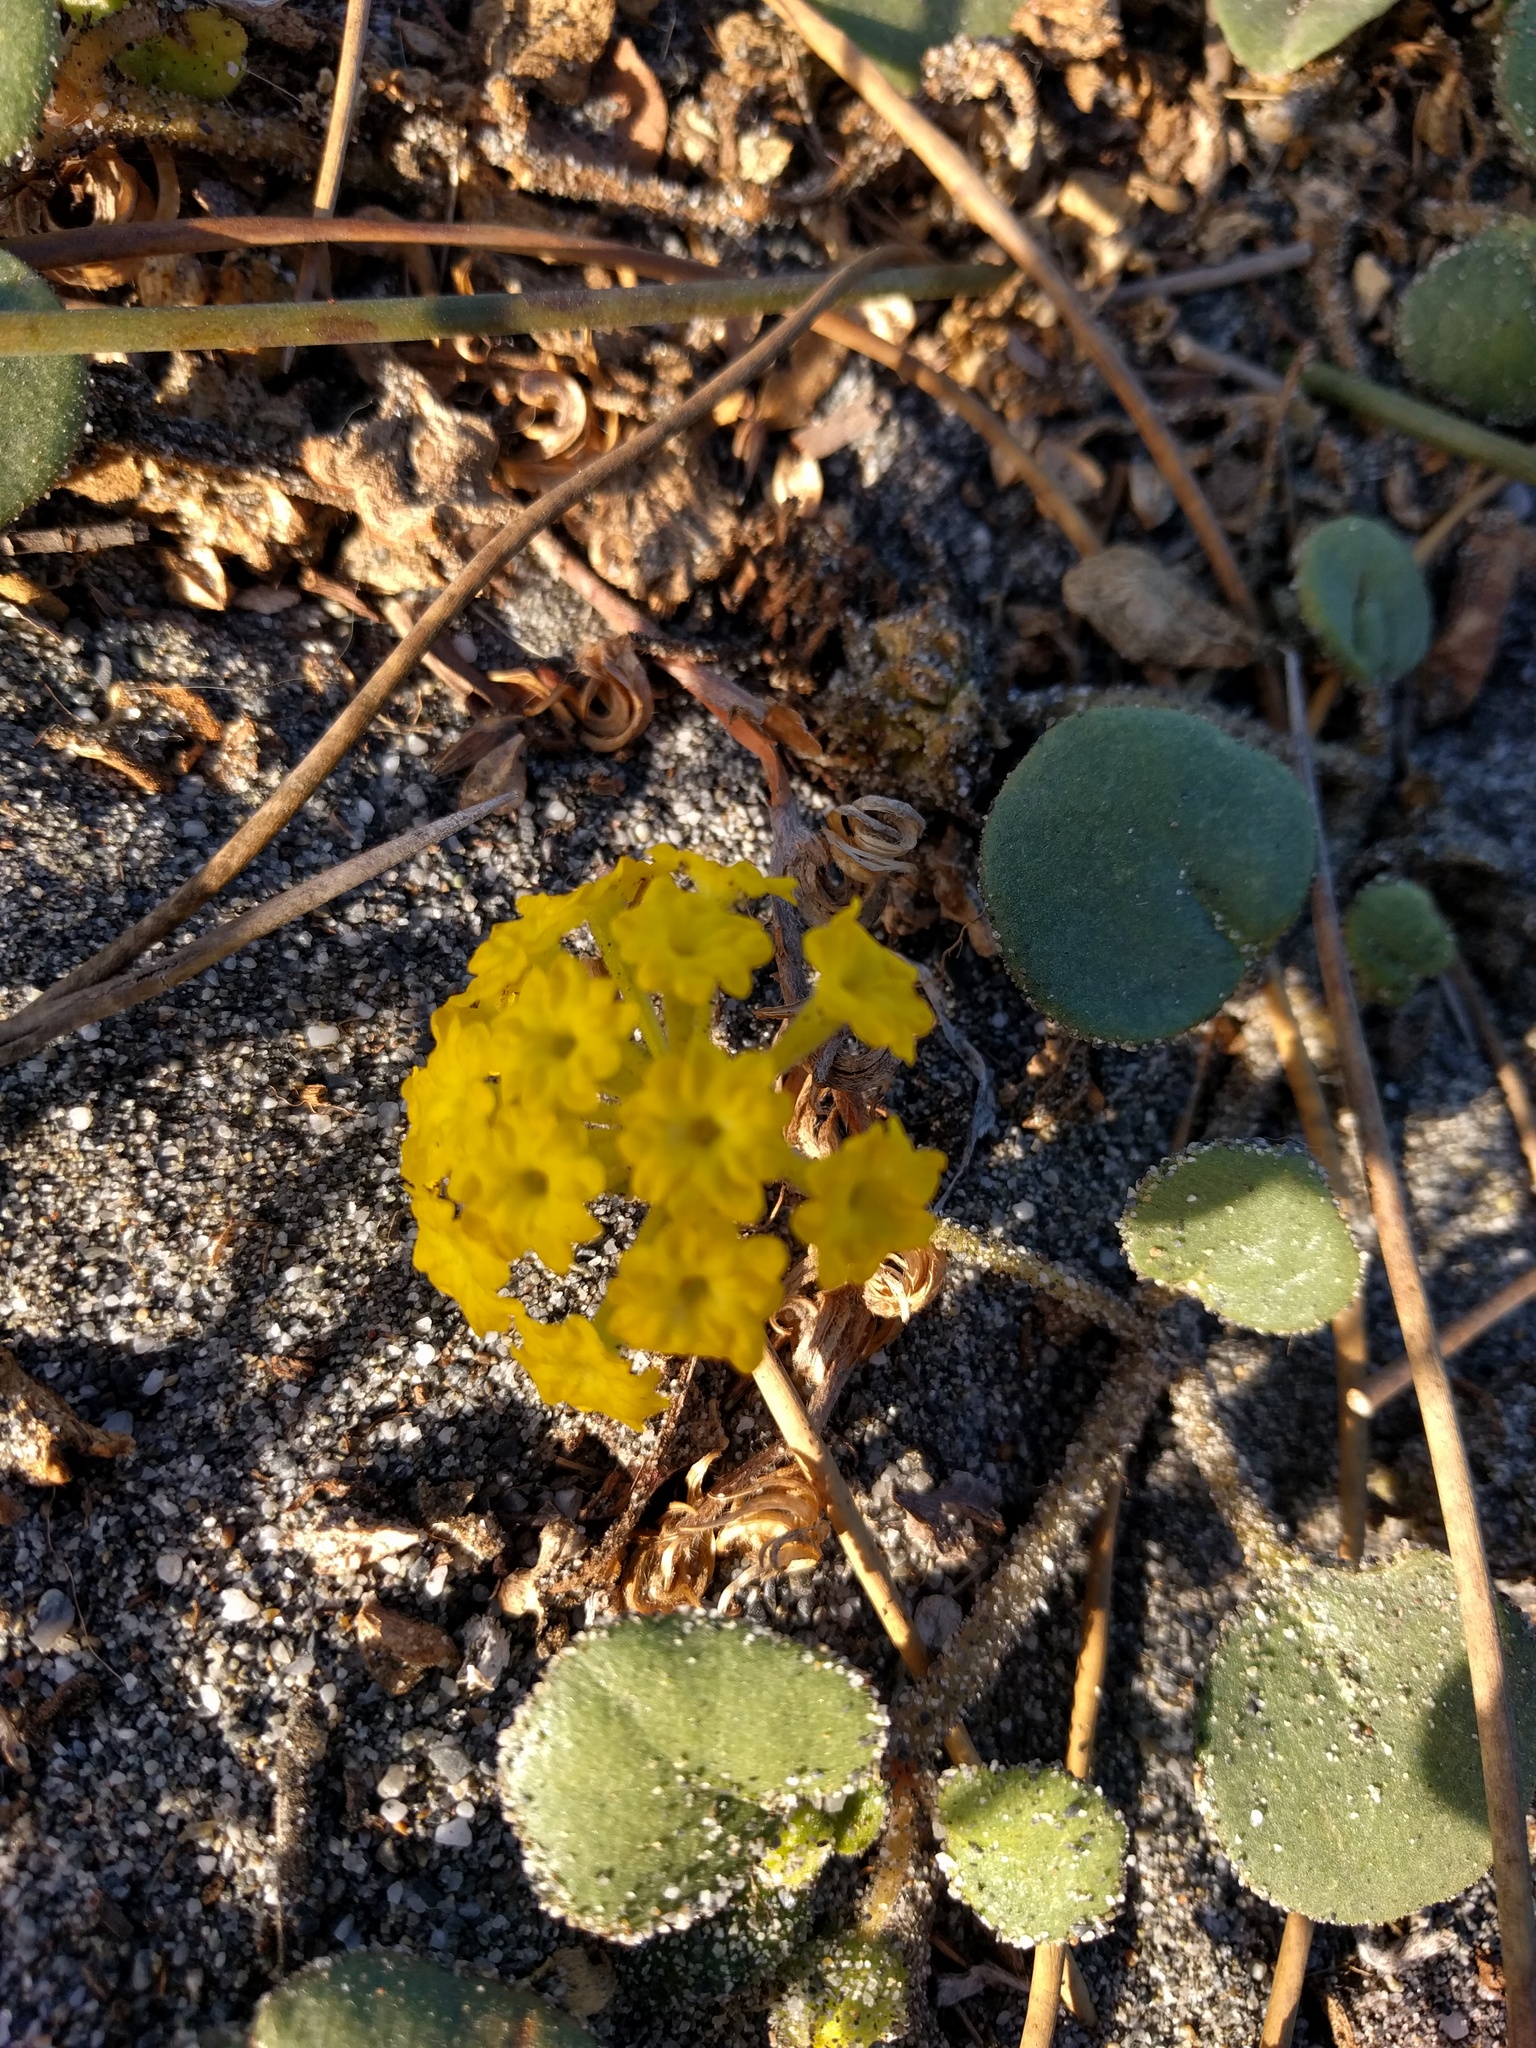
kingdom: Plantae
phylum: Tracheophyta
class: Magnoliopsida
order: Caryophyllales
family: Nyctaginaceae
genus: Abronia
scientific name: Abronia latifolia
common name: Yellow sand-verbena
